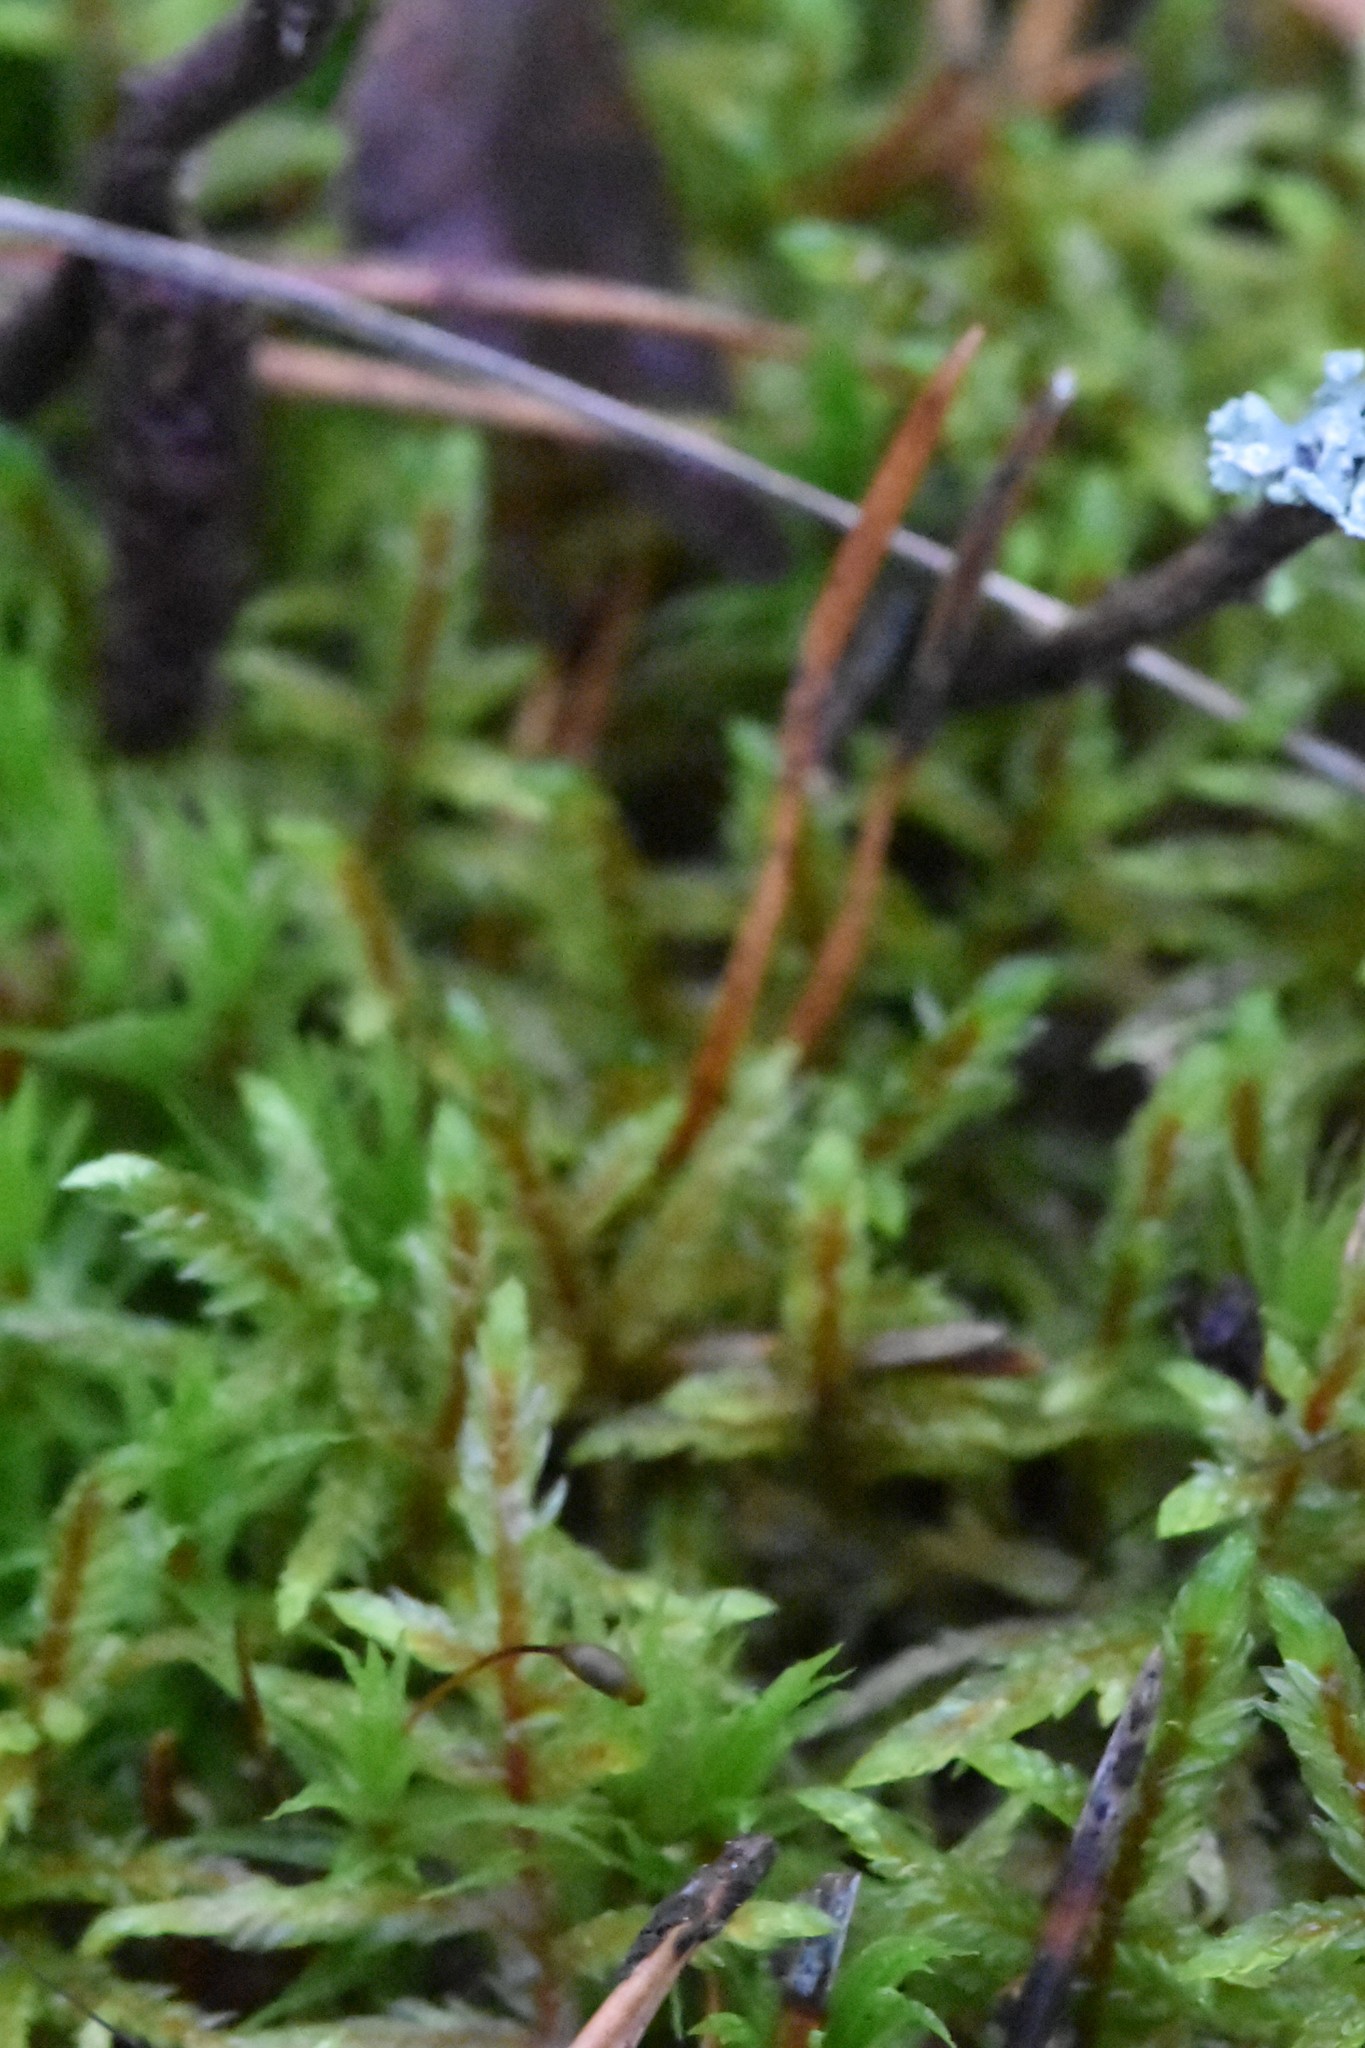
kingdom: Plantae
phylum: Bryophyta
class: Bryopsida
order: Hypnales
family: Hylocomiaceae
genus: Pleurozium
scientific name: Pleurozium schreberi
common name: Red-stemmed feather moss
